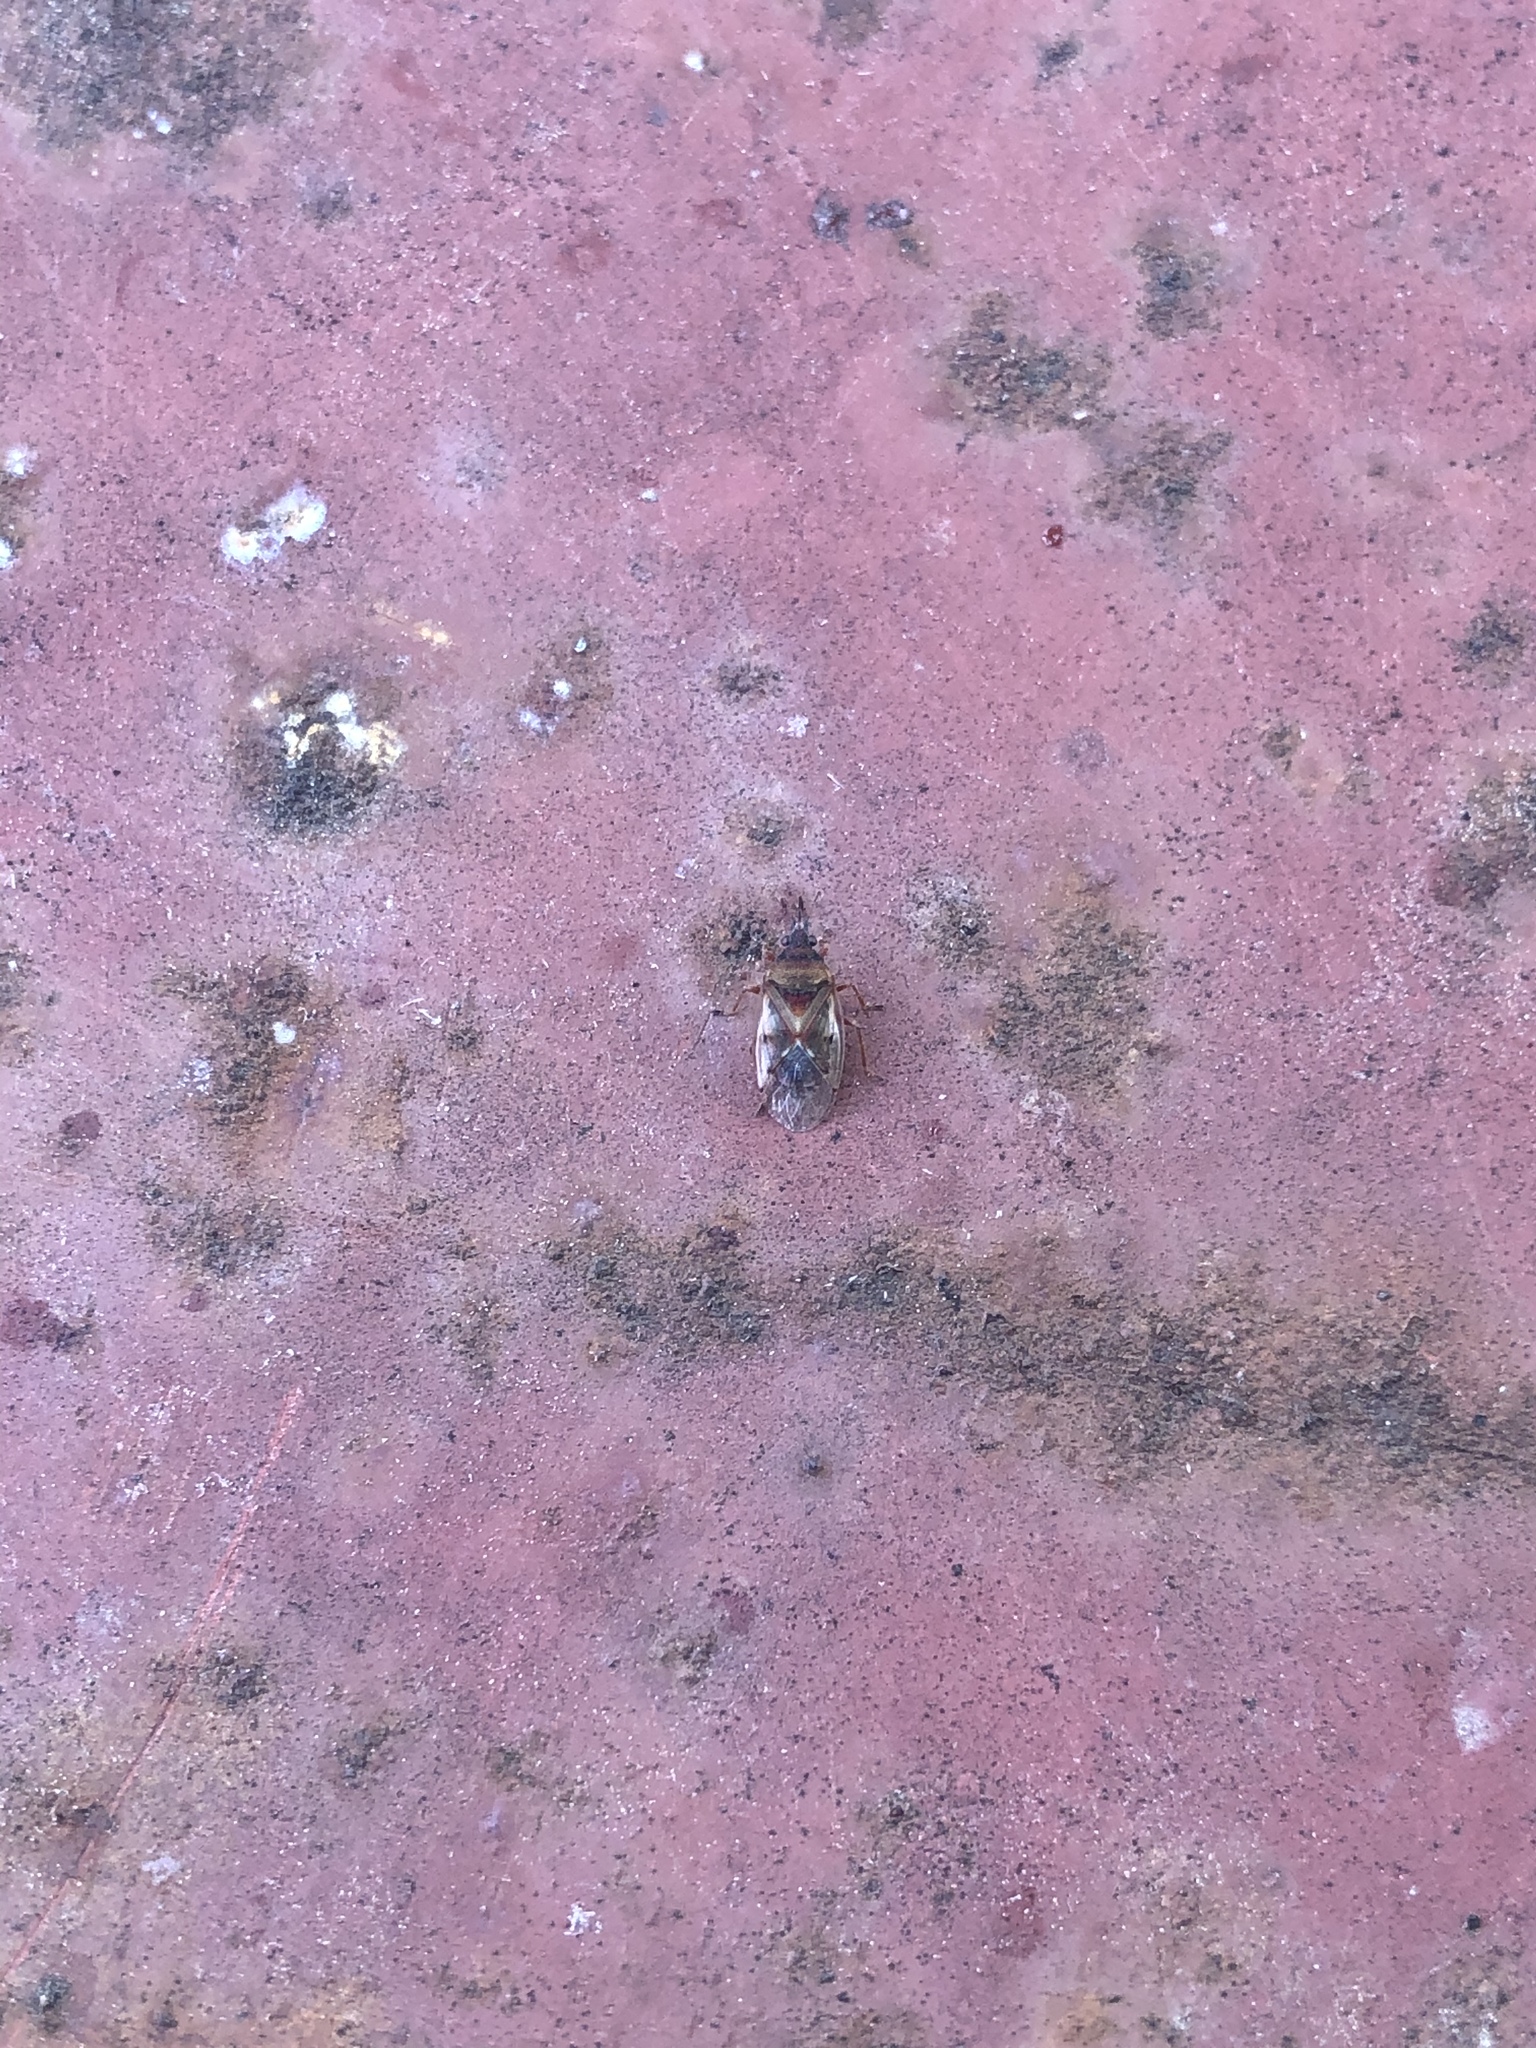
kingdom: Animalia
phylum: Arthropoda
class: Insecta
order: Hemiptera
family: Lygaeidae
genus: Kleidocerys
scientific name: Kleidocerys resedae
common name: Birch catkin bug
